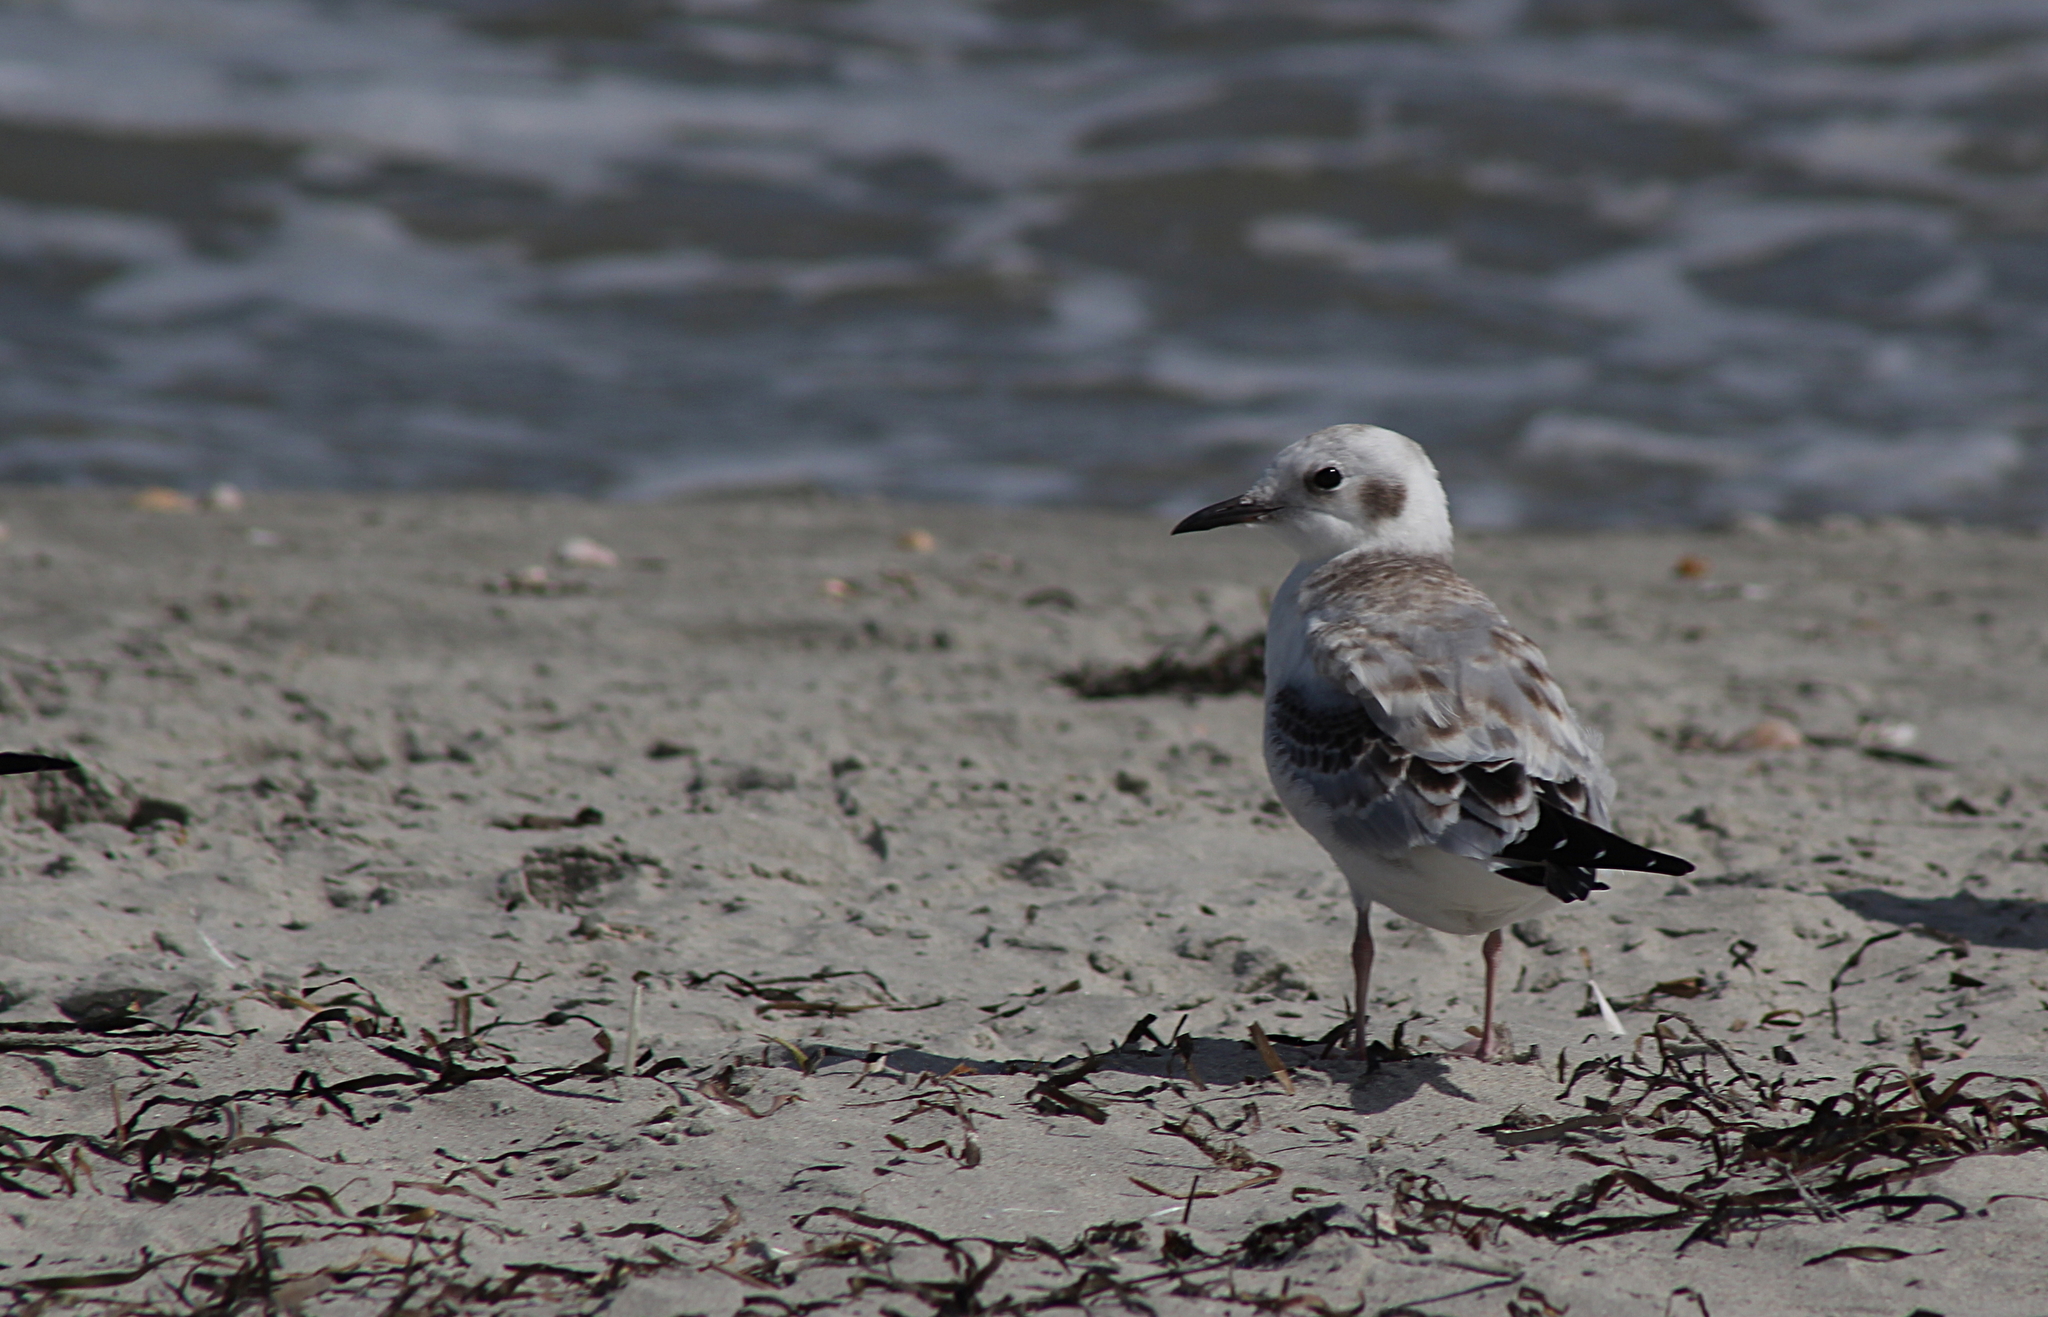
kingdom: Animalia
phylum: Chordata
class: Aves
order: Charadriiformes
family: Laridae
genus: Chroicocephalus
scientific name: Chroicocephalus philadelphia
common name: Bonaparte's gull
